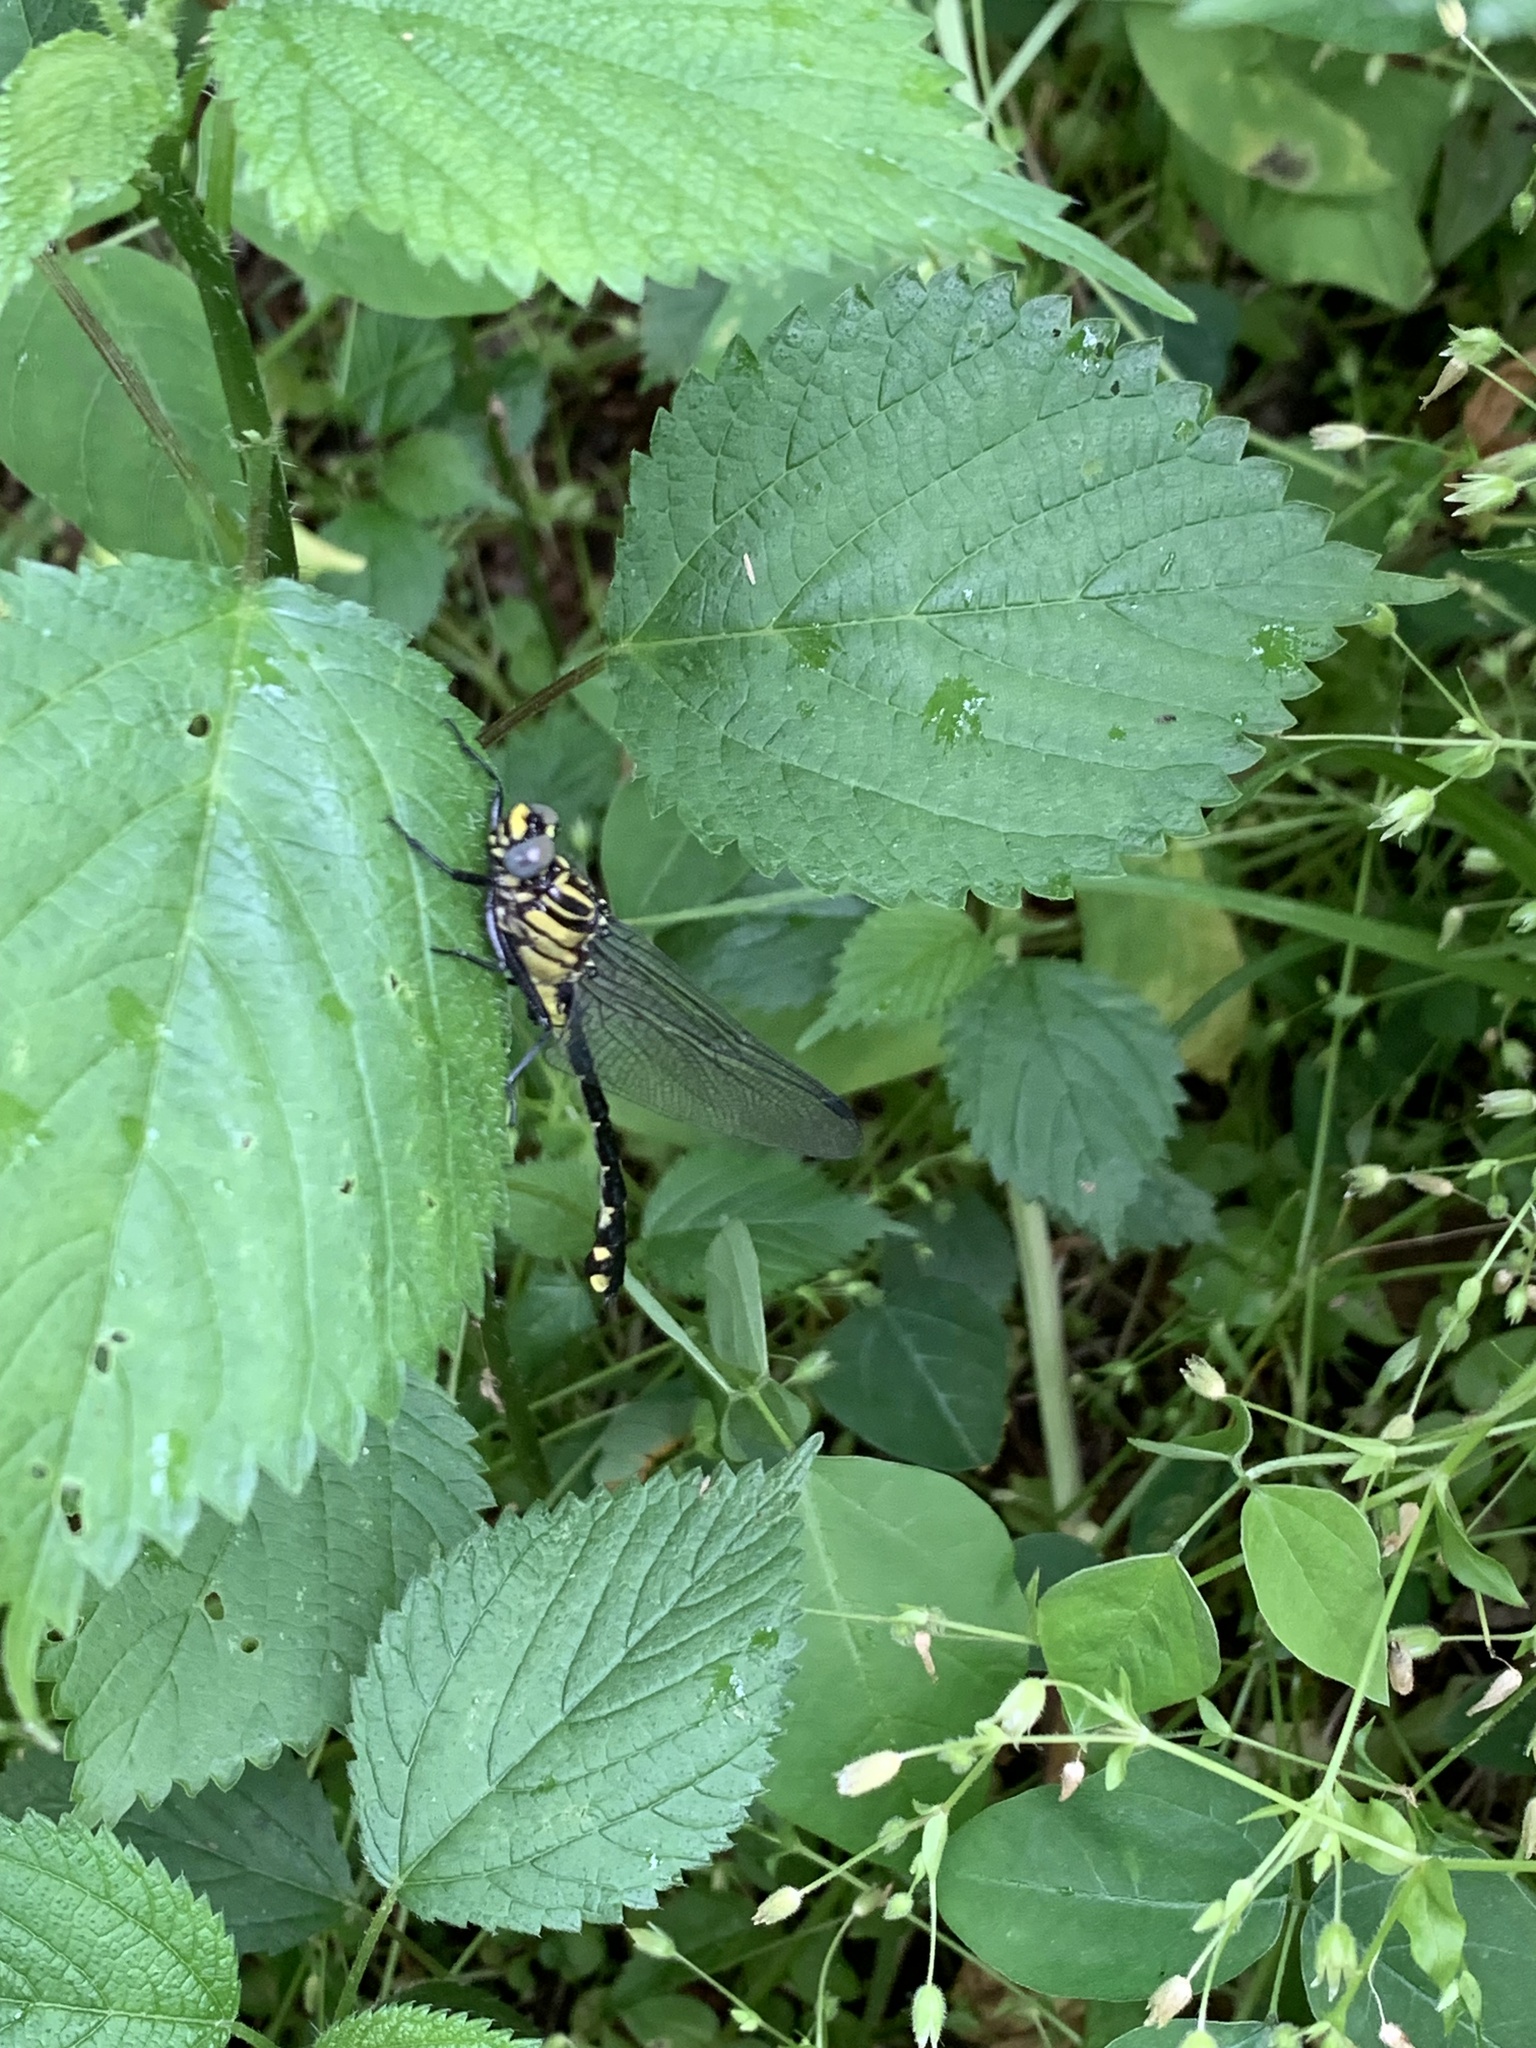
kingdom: Animalia
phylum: Arthropoda
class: Insecta
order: Odonata
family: Gomphidae
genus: Gomphurus
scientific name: Gomphurus vastus
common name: Cobra clubtail
